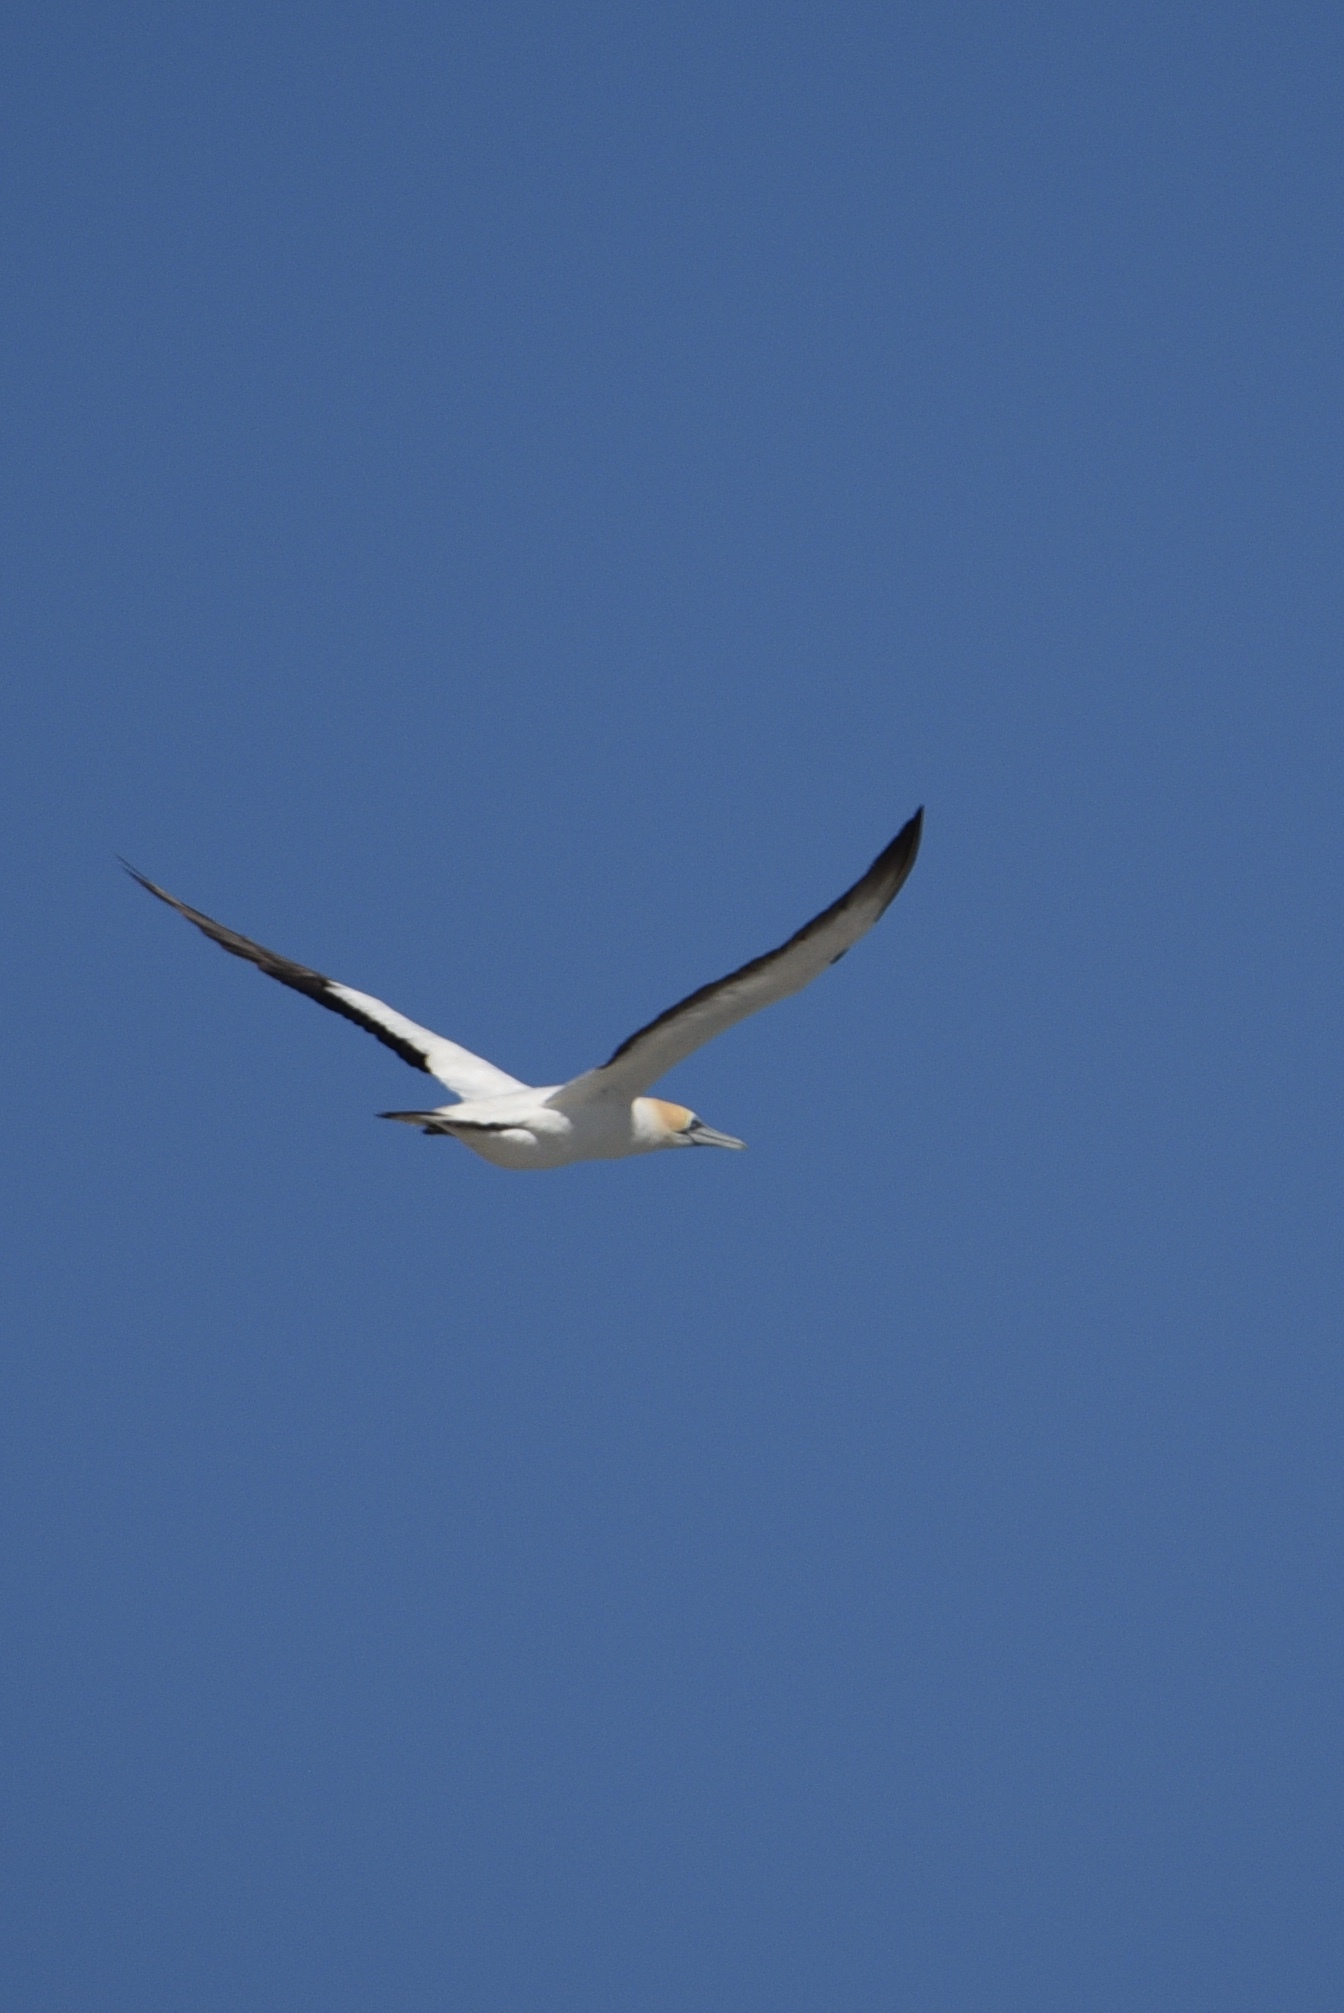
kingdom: Animalia
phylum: Chordata
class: Aves
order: Suliformes
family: Sulidae
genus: Morus
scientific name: Morus serrator
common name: Australasian gannet
